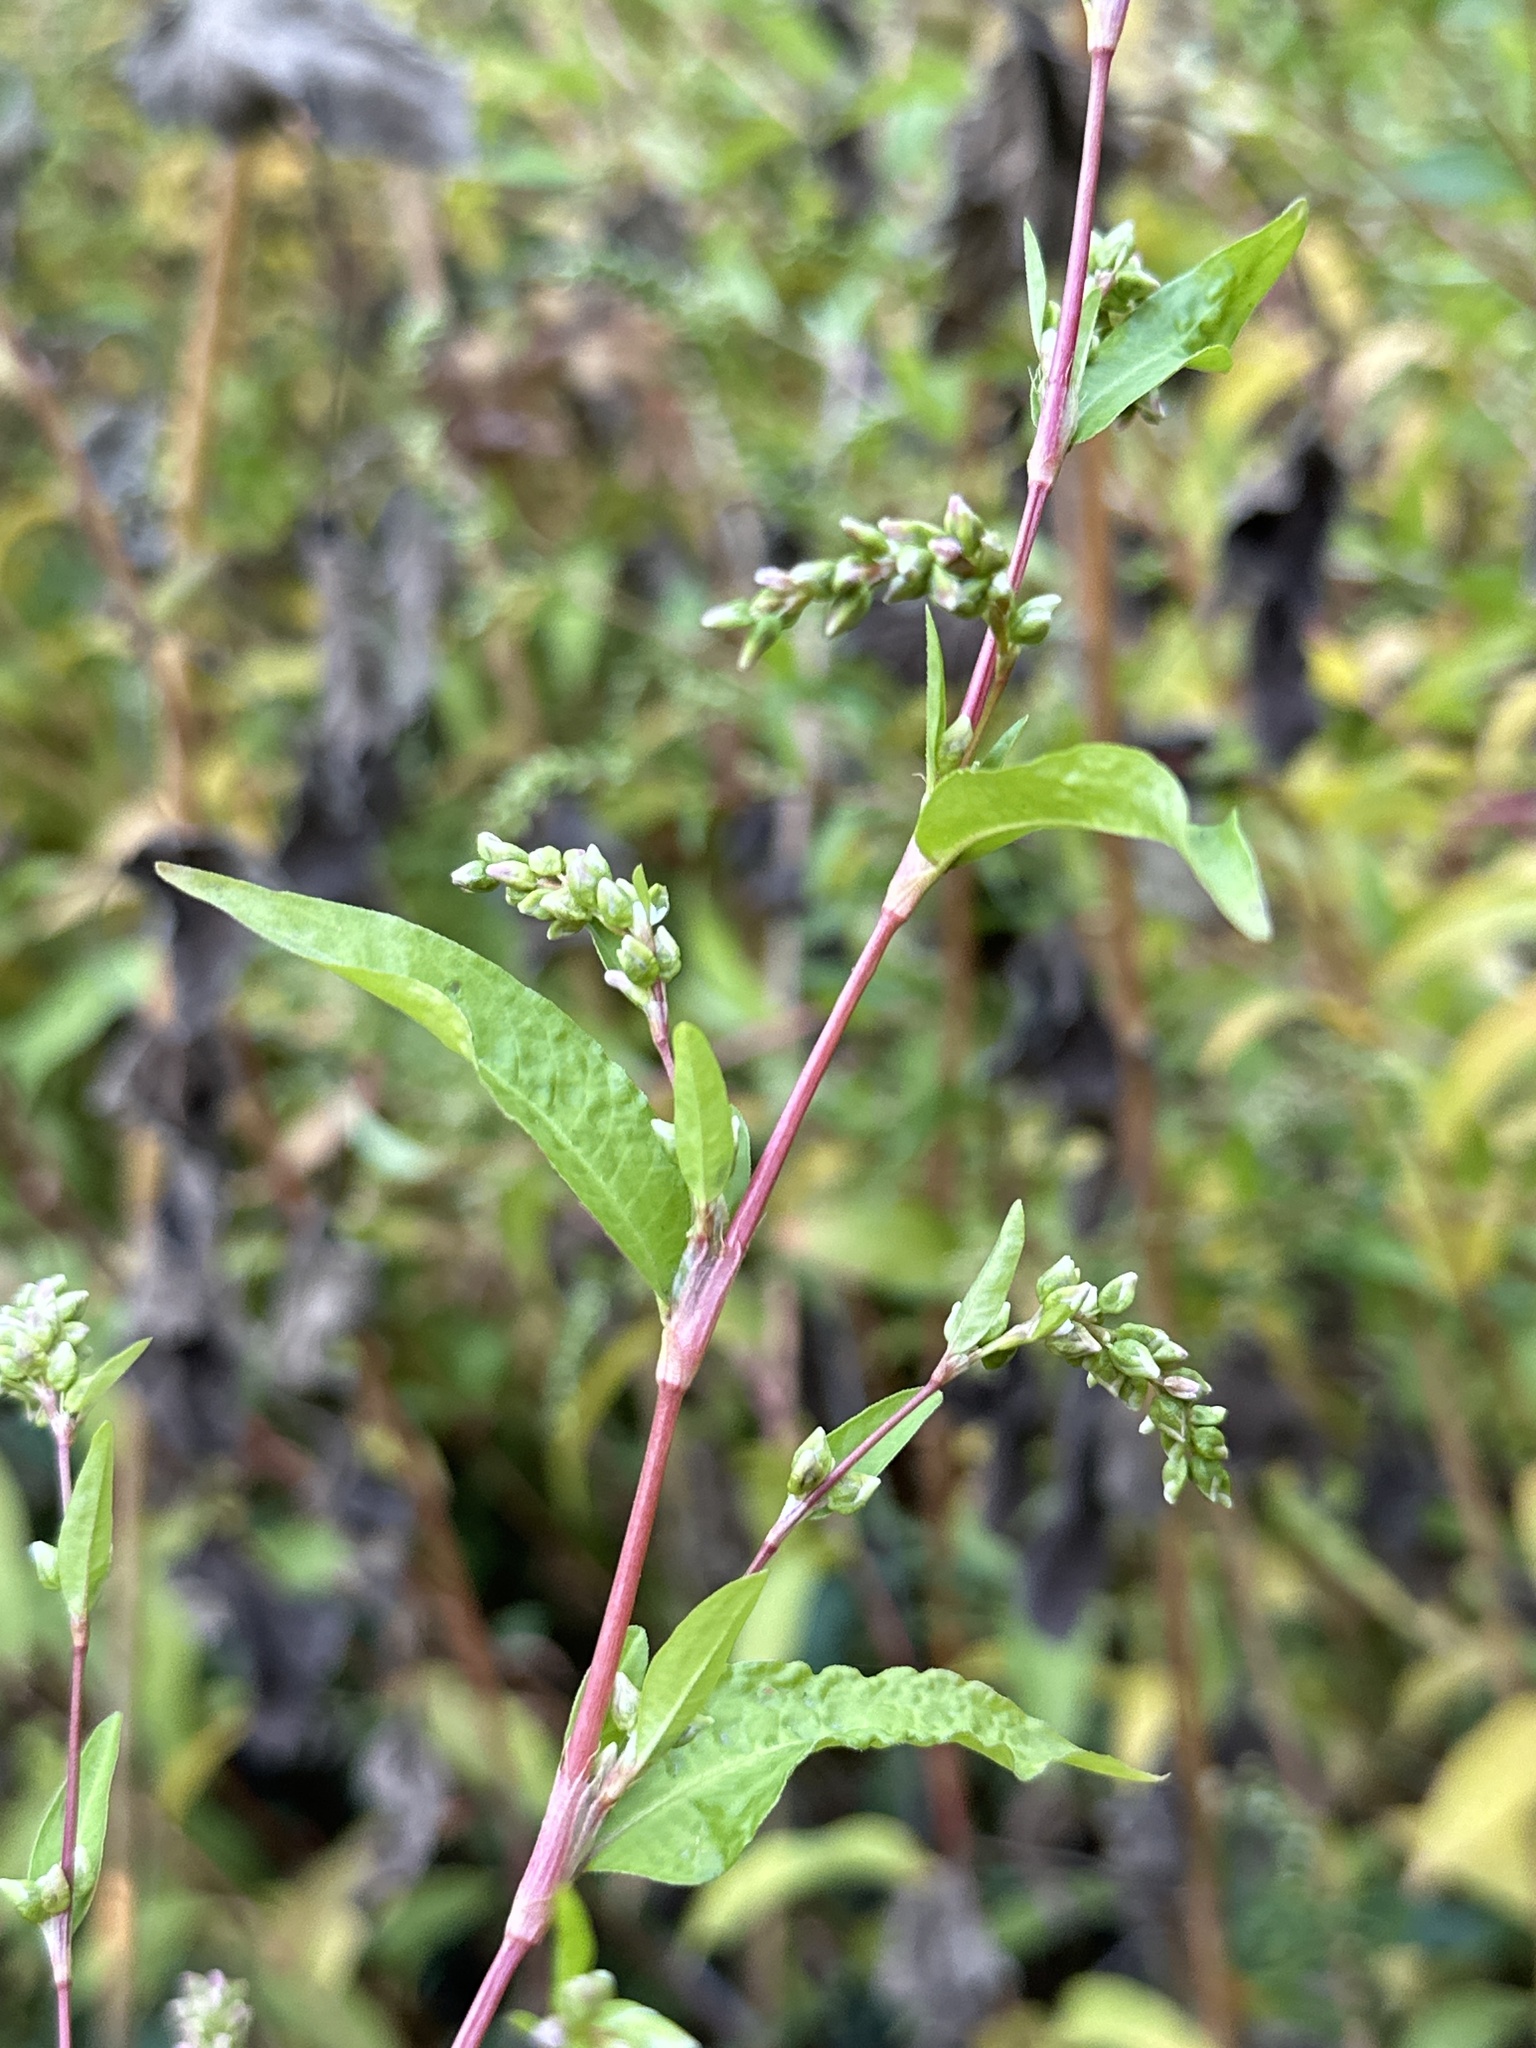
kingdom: Plantae
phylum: Tracheophyta
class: Magnoliopsida
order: Caryophyllales
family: Polygonaceae
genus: Persicaria
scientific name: Persicaria hydropiper
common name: Water-pepper
